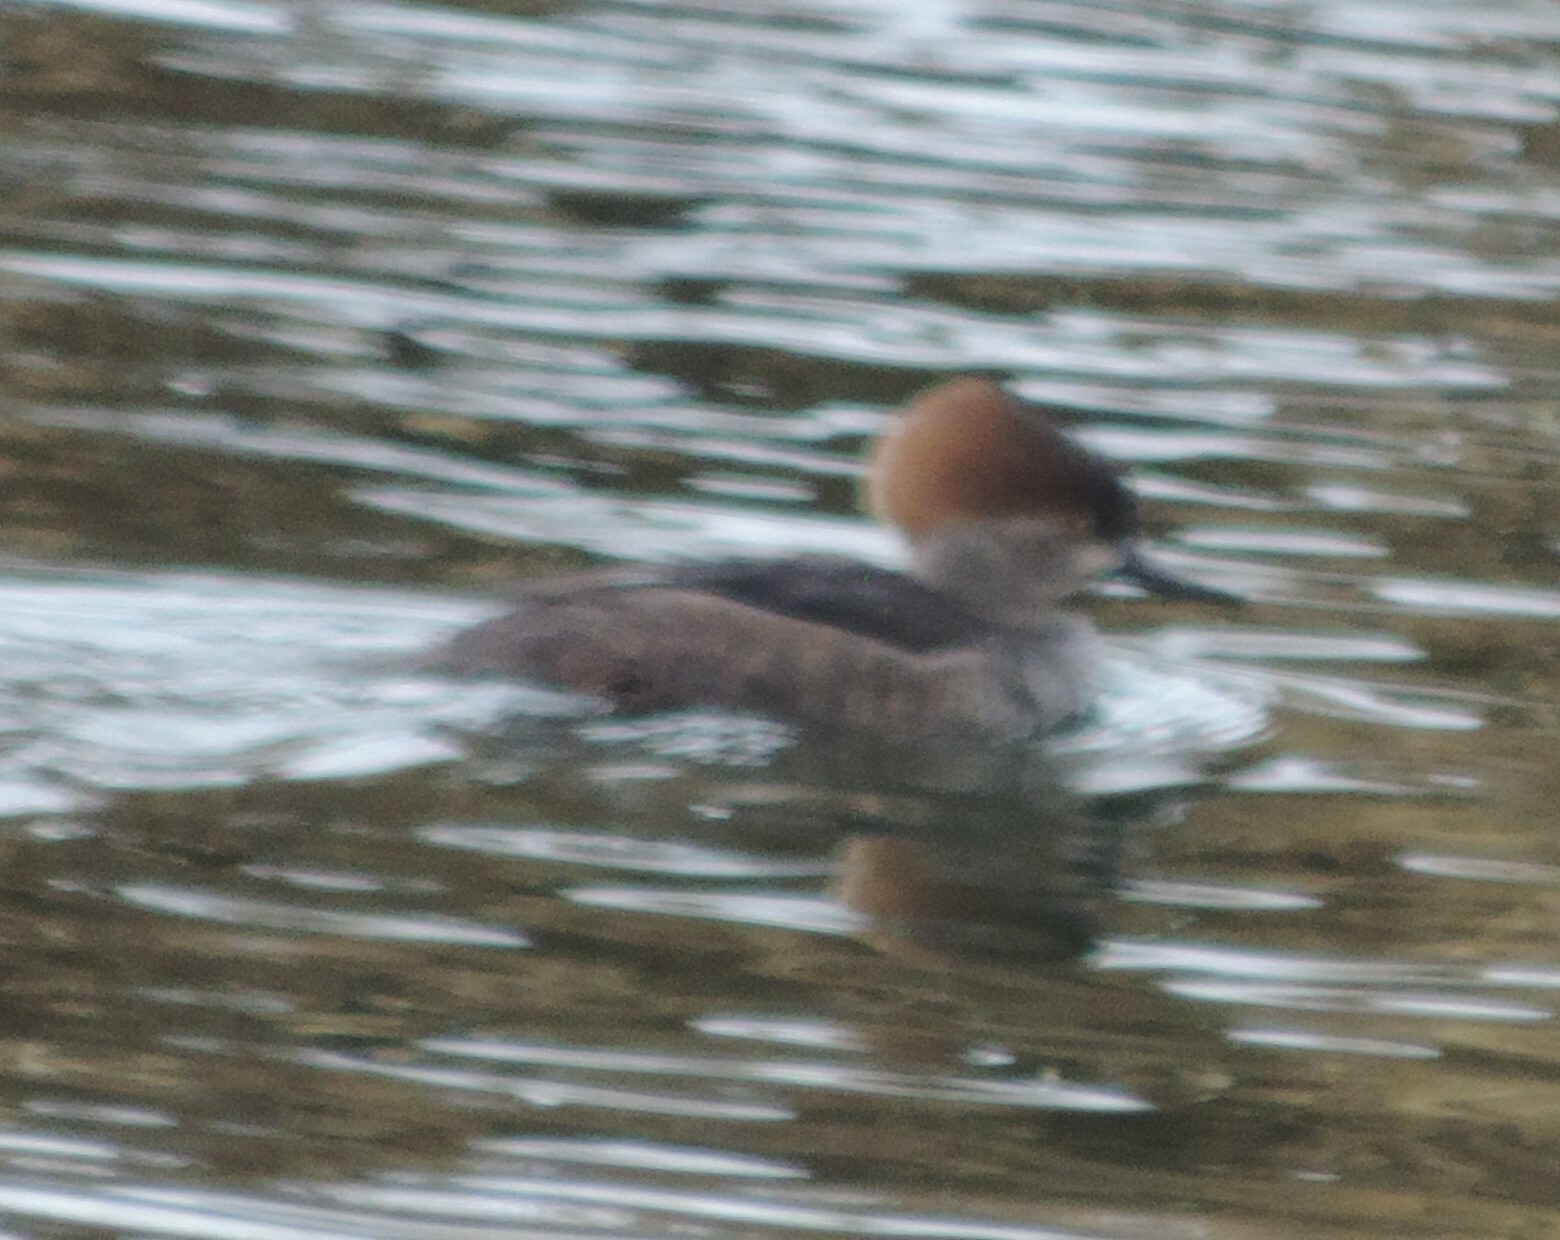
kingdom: Animalia
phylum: Chordata
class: Aves
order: Anseriformes
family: Anatidae
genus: Lophodytes
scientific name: Lophodytes cucullatus
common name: Hooded merganser
